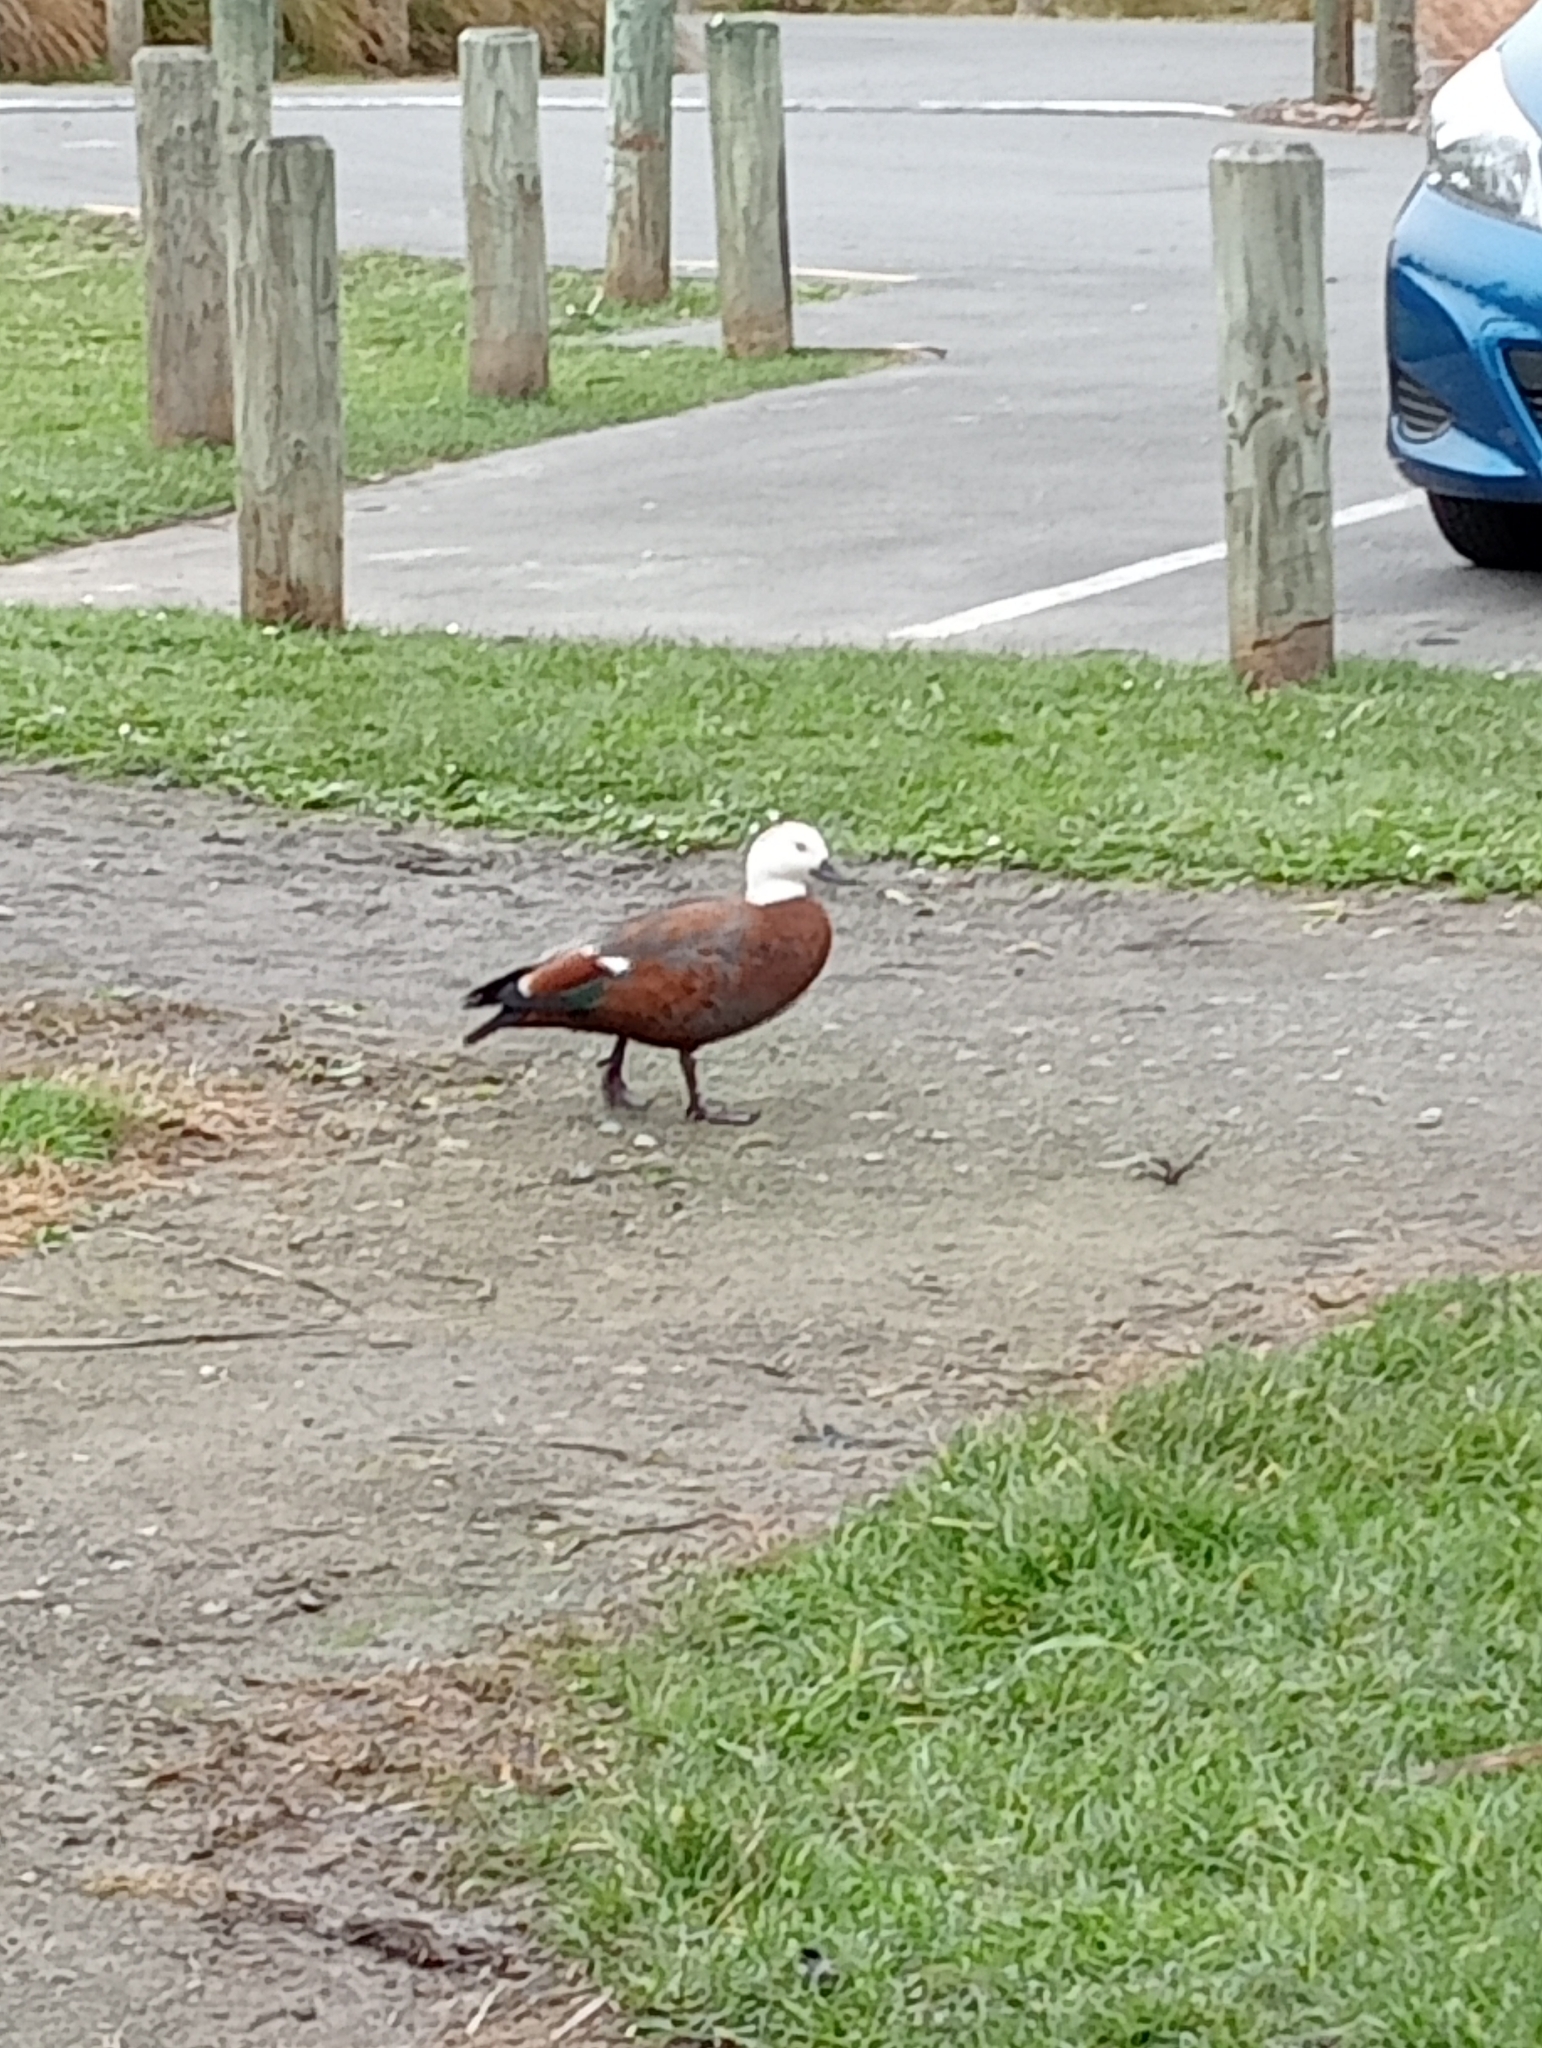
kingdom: Animalia
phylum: Chordata
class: Aves
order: Anseriformes
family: Anatidae
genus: Tadorna
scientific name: Tadorna variegata
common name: Paradise shelduck
